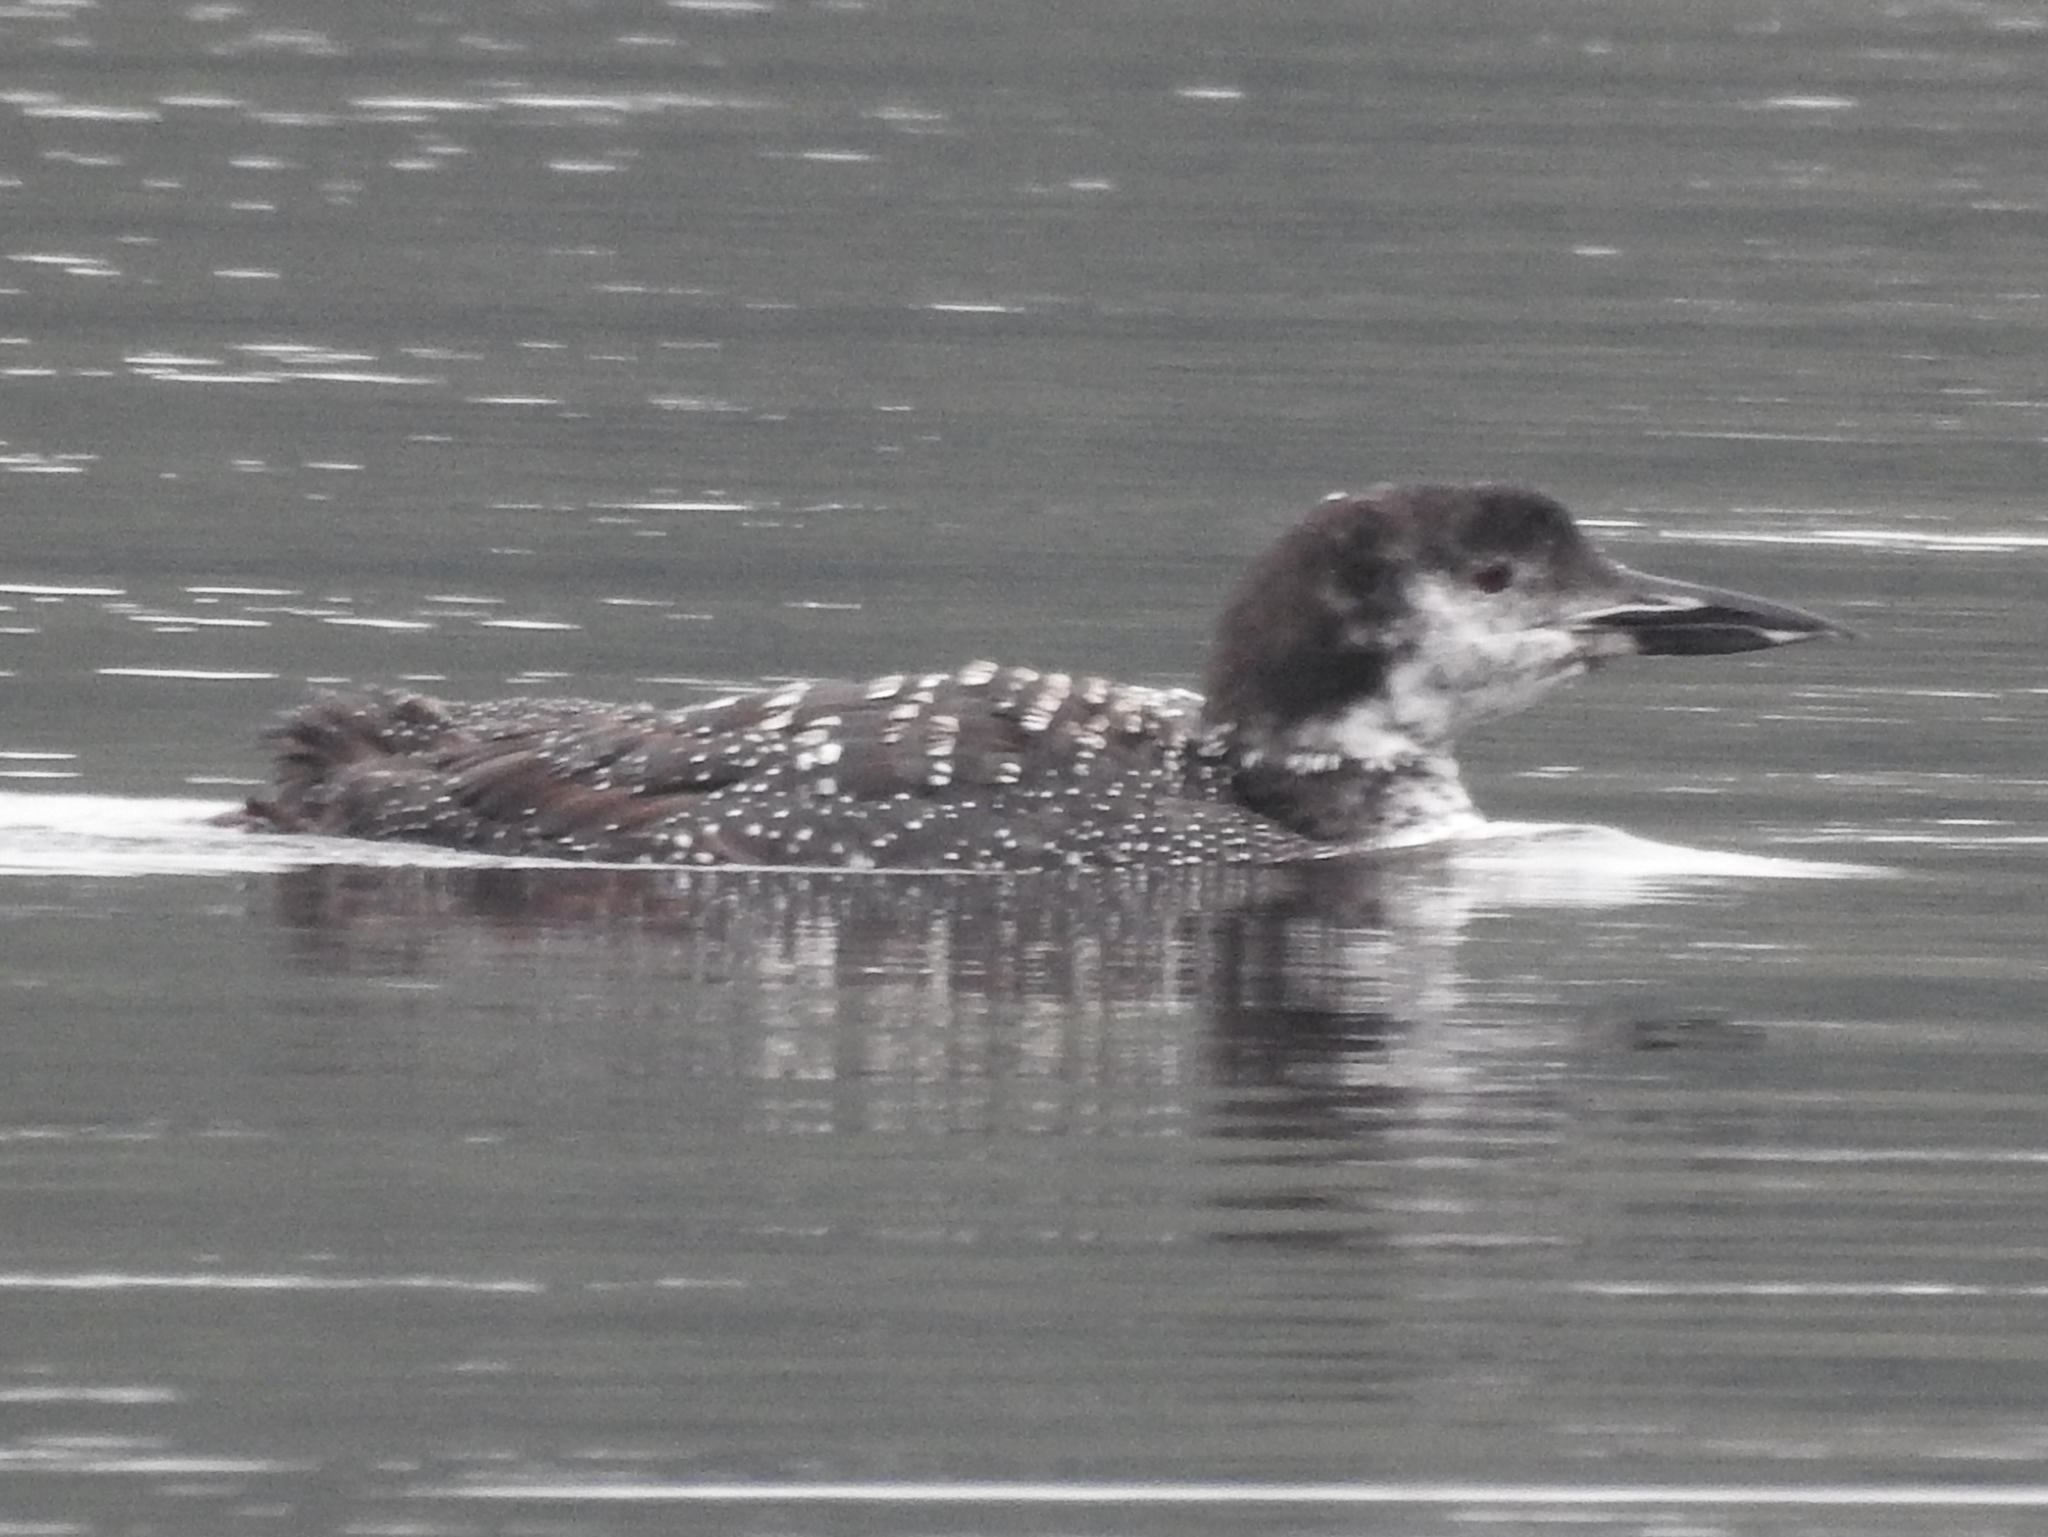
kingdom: Animalia
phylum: Chordata
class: Aves
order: Gaviiformes
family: Gaviidae
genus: Gavia
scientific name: Gavia immer
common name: Common loon
